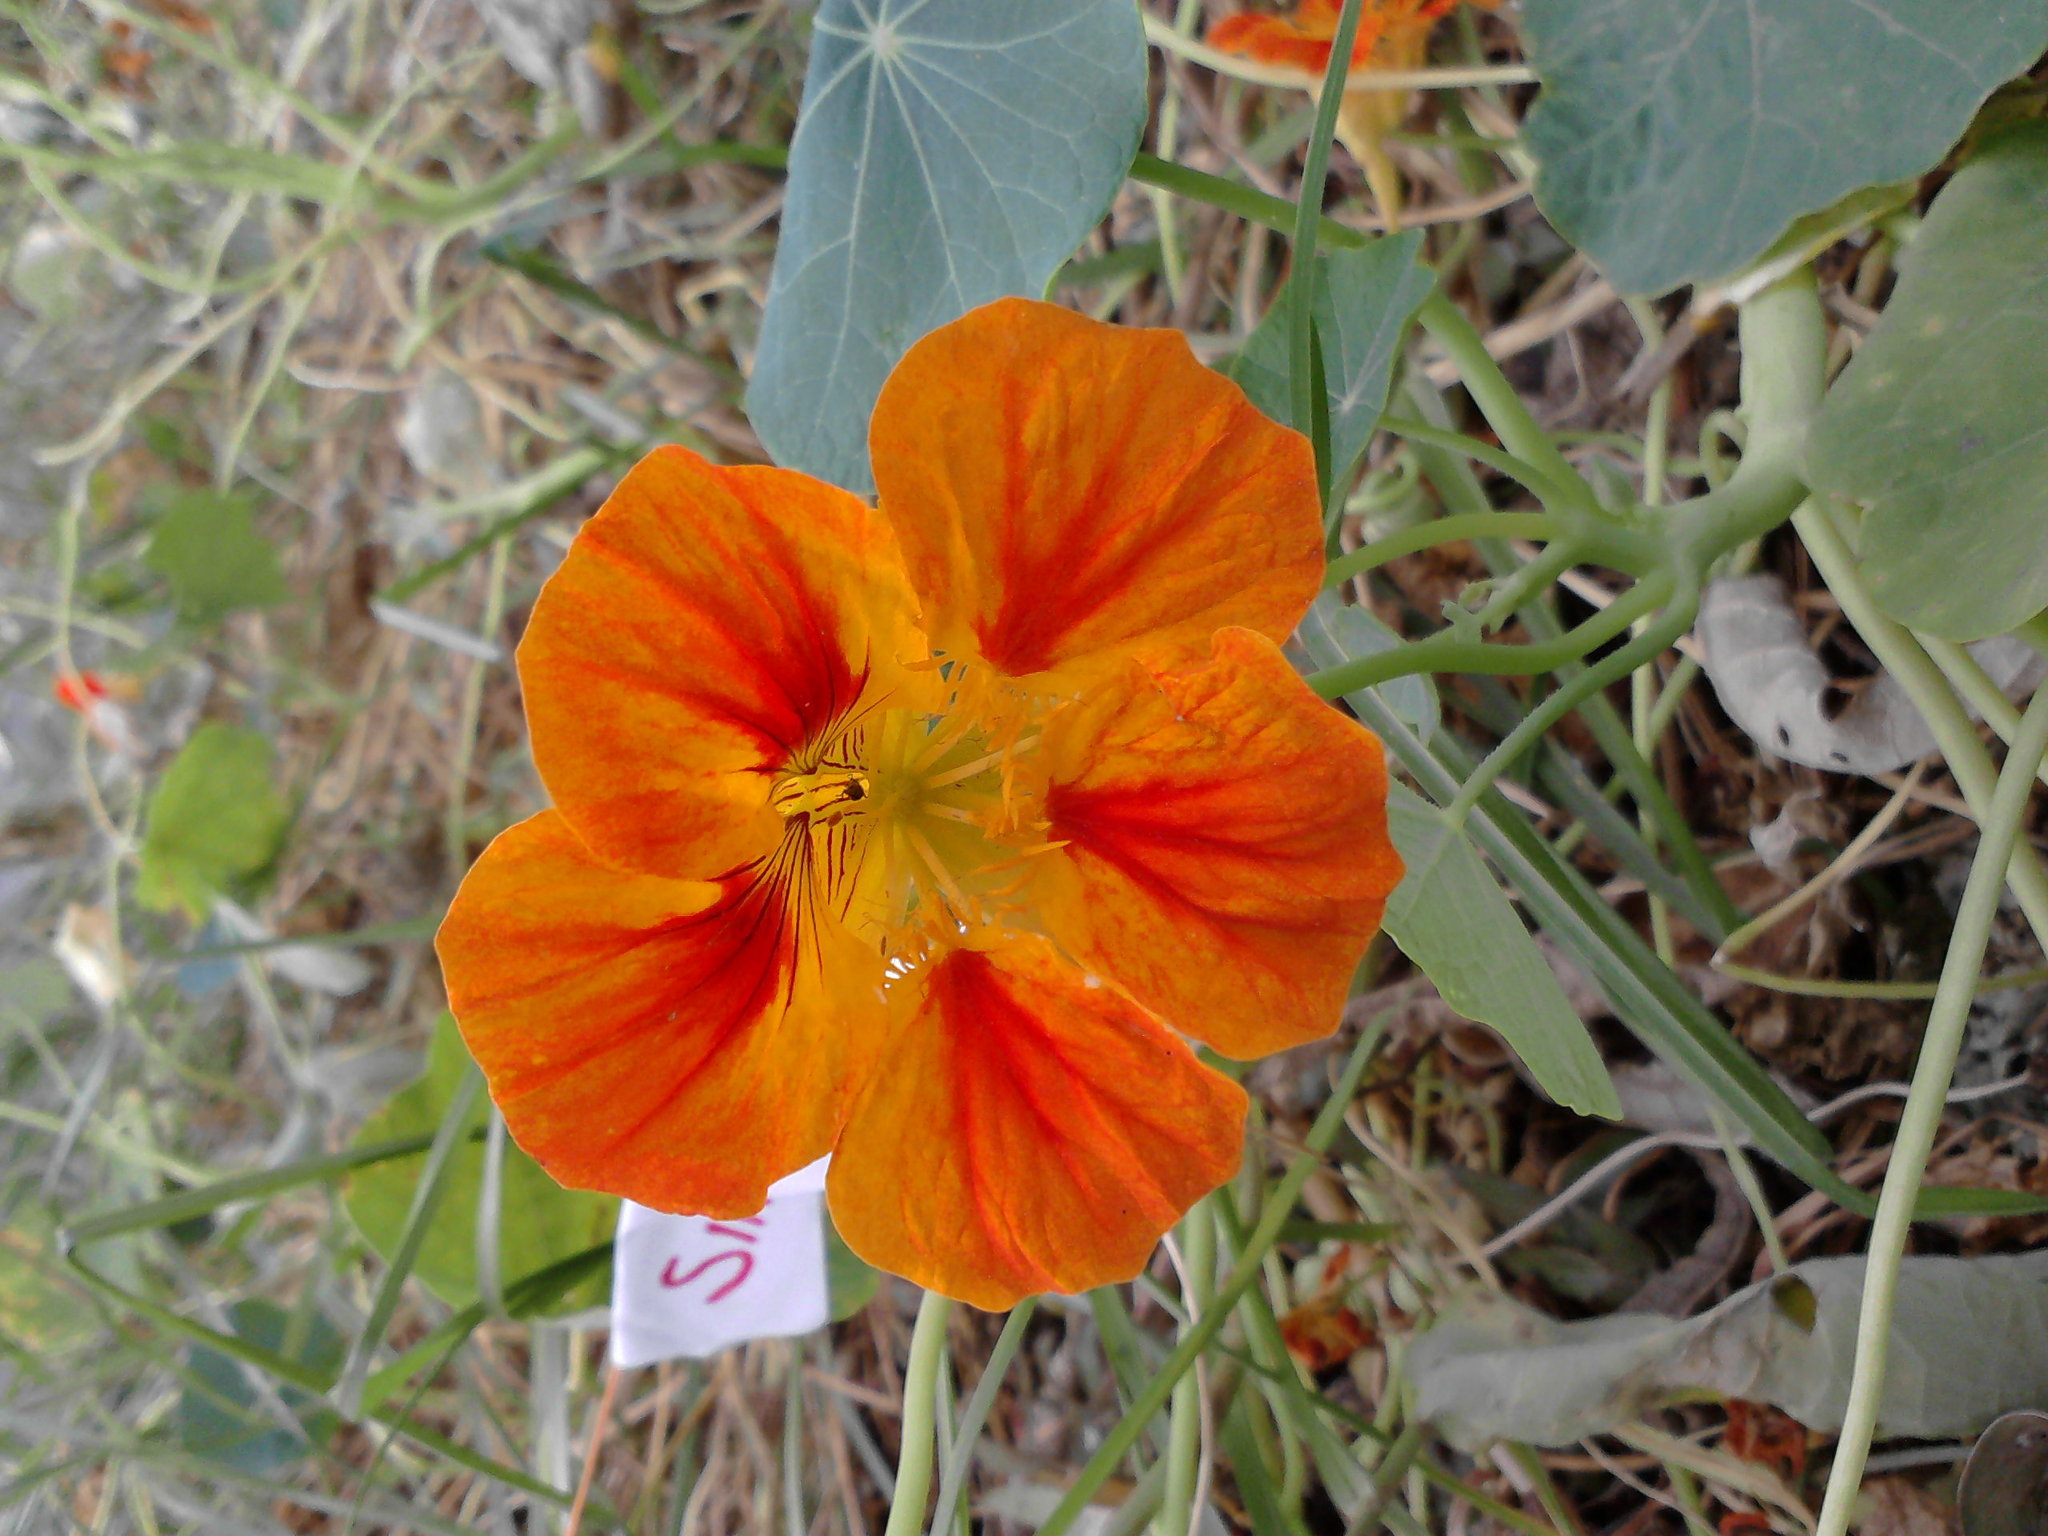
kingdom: Plantae
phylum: Tracheophyta
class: Magnoliopsida
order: Brassicales
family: Tropaeolaceae
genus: Tropaeolum
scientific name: Tropaeolum majus
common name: Nasturtium
